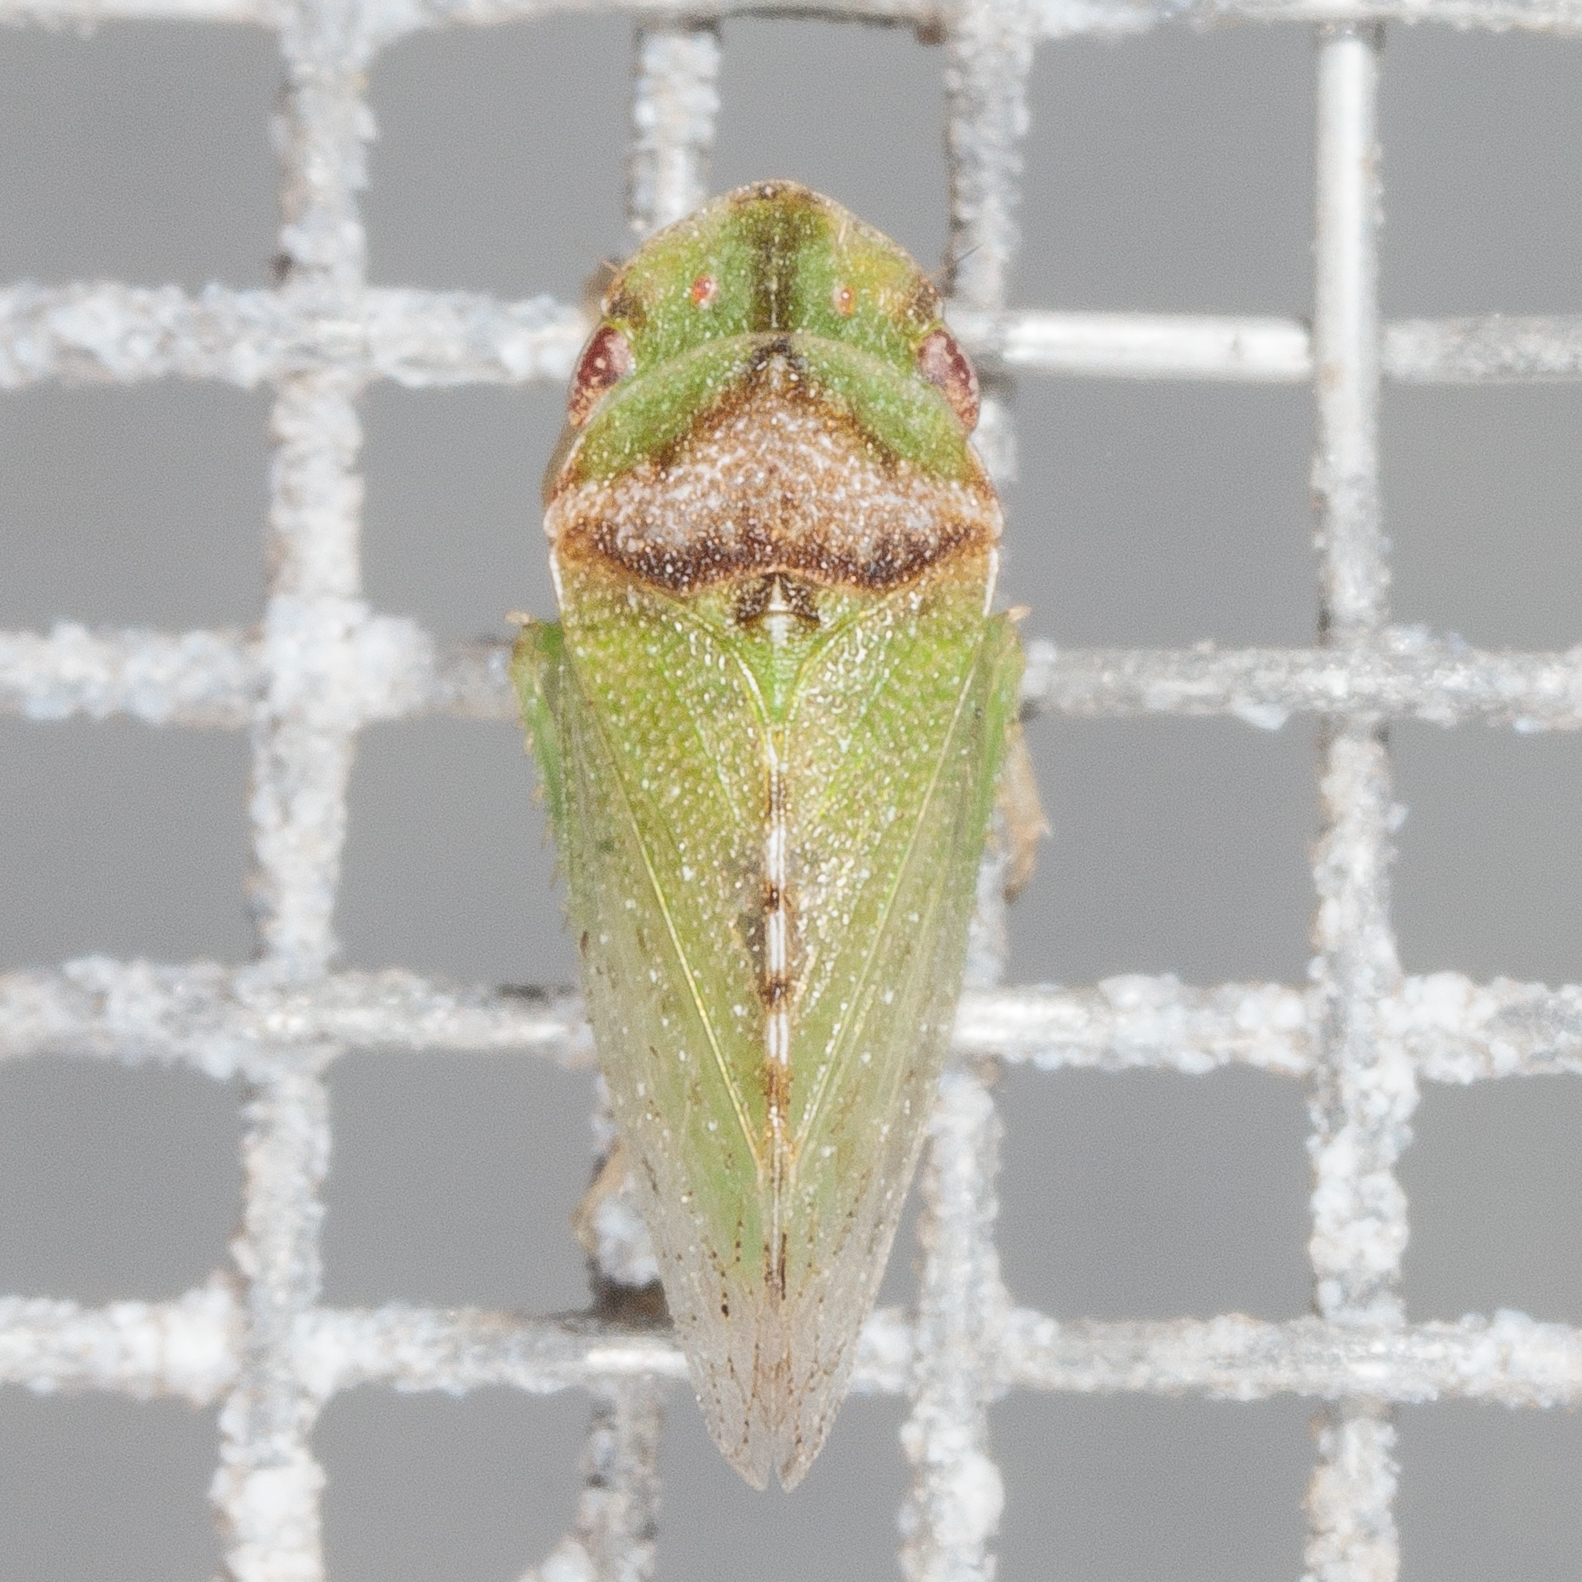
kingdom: Animalia
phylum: Arthropoda
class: Insecta
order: Hemiptera
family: Cicadellidae
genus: Xerophloea
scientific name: Xerophloea viridis
